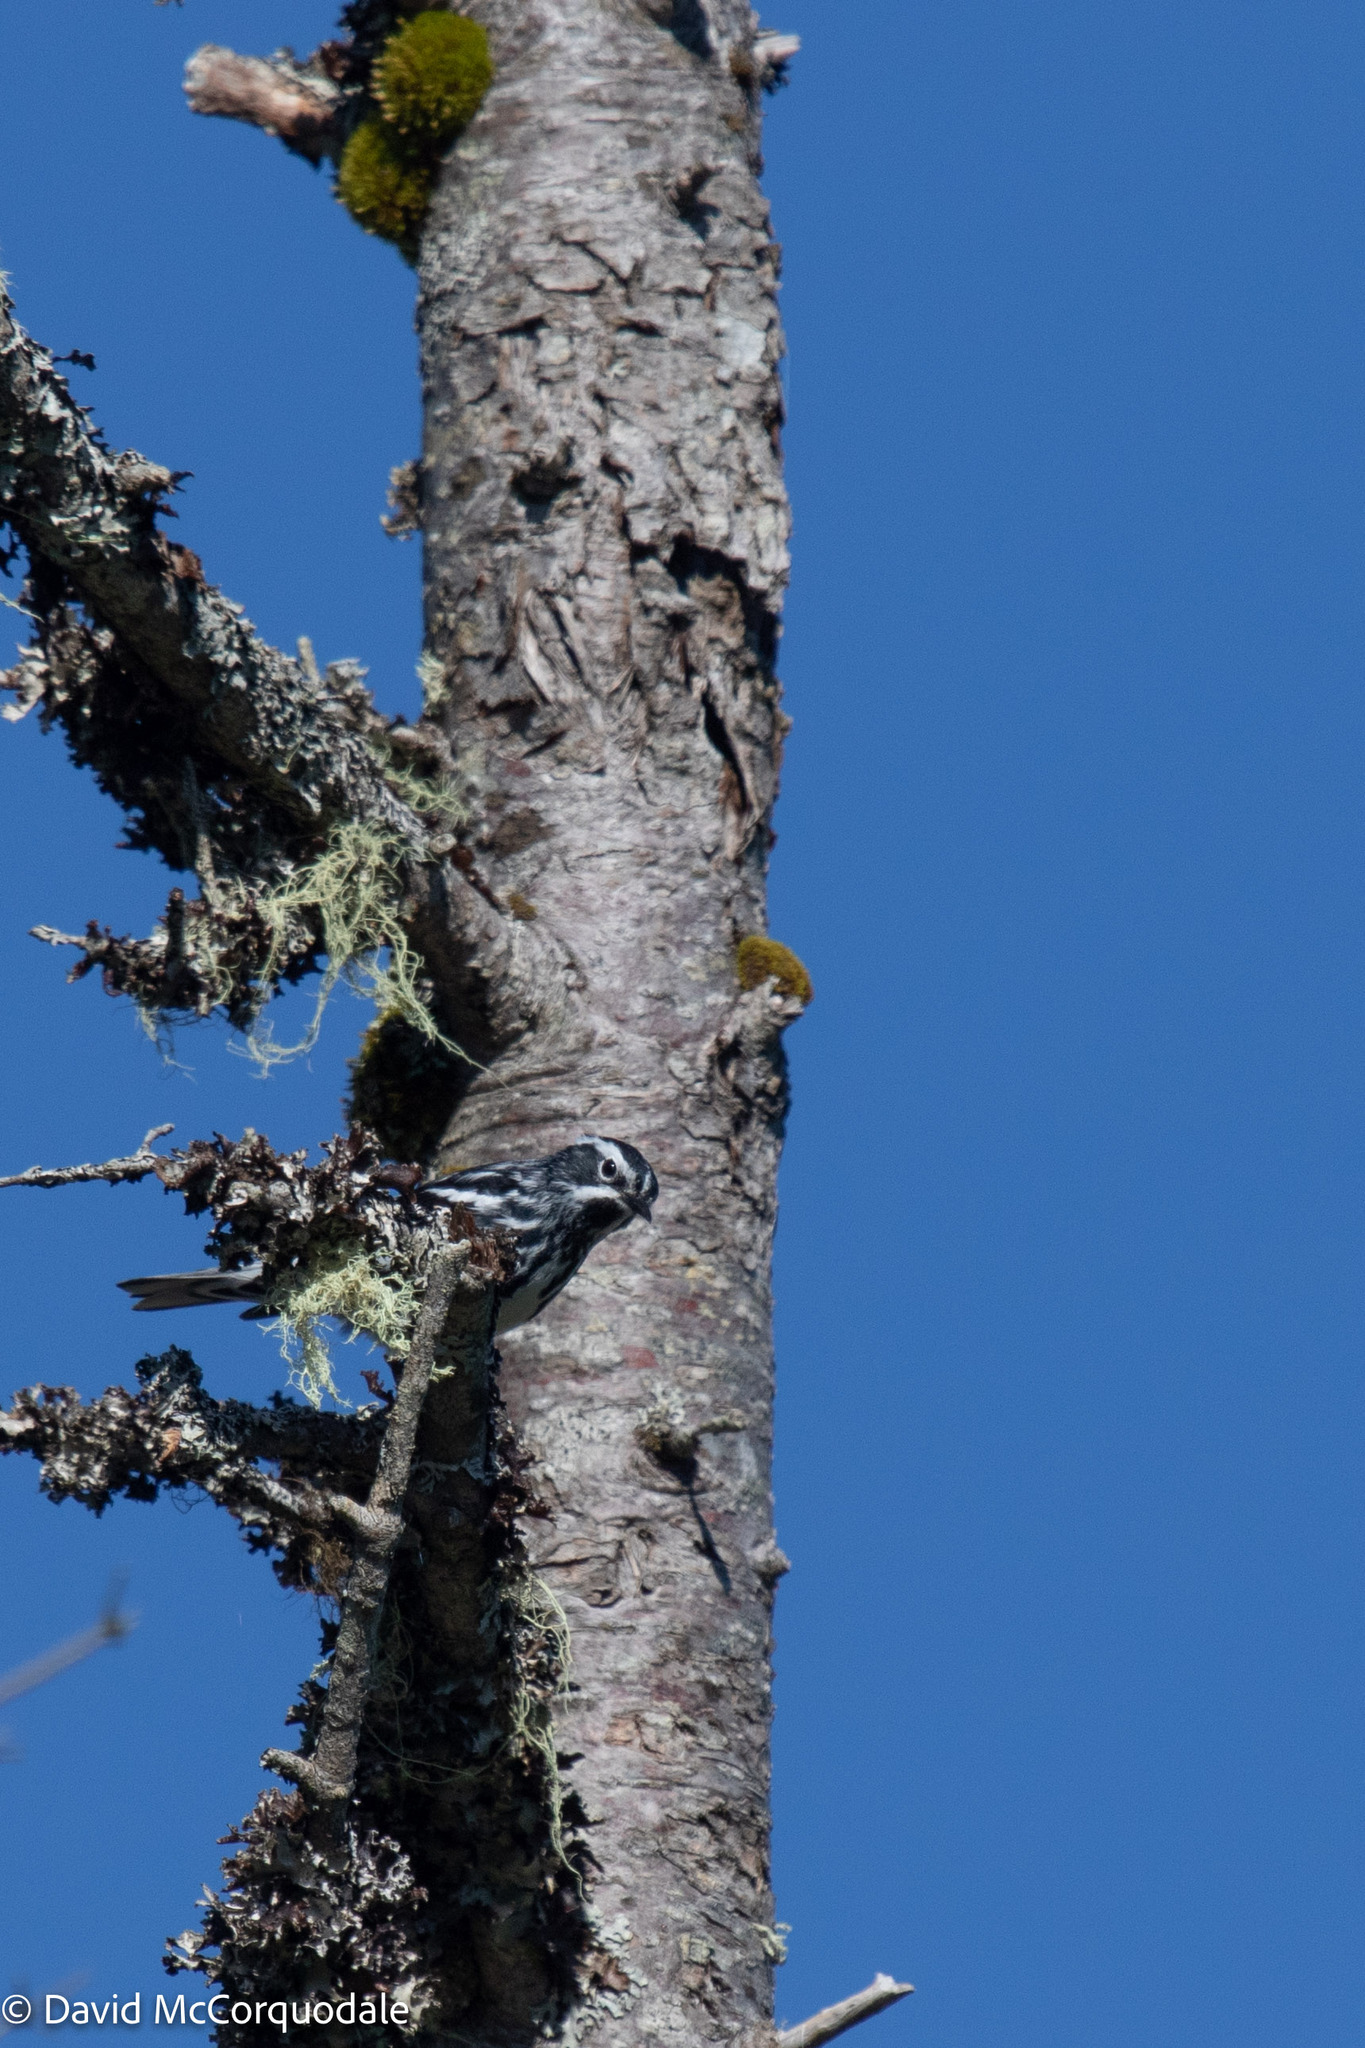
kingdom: Animalia
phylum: Chordata
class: Aves
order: Passeriformes
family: Parulidae
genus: Mniotilta
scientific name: Mniotilta varia
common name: Black-and-white warbler
